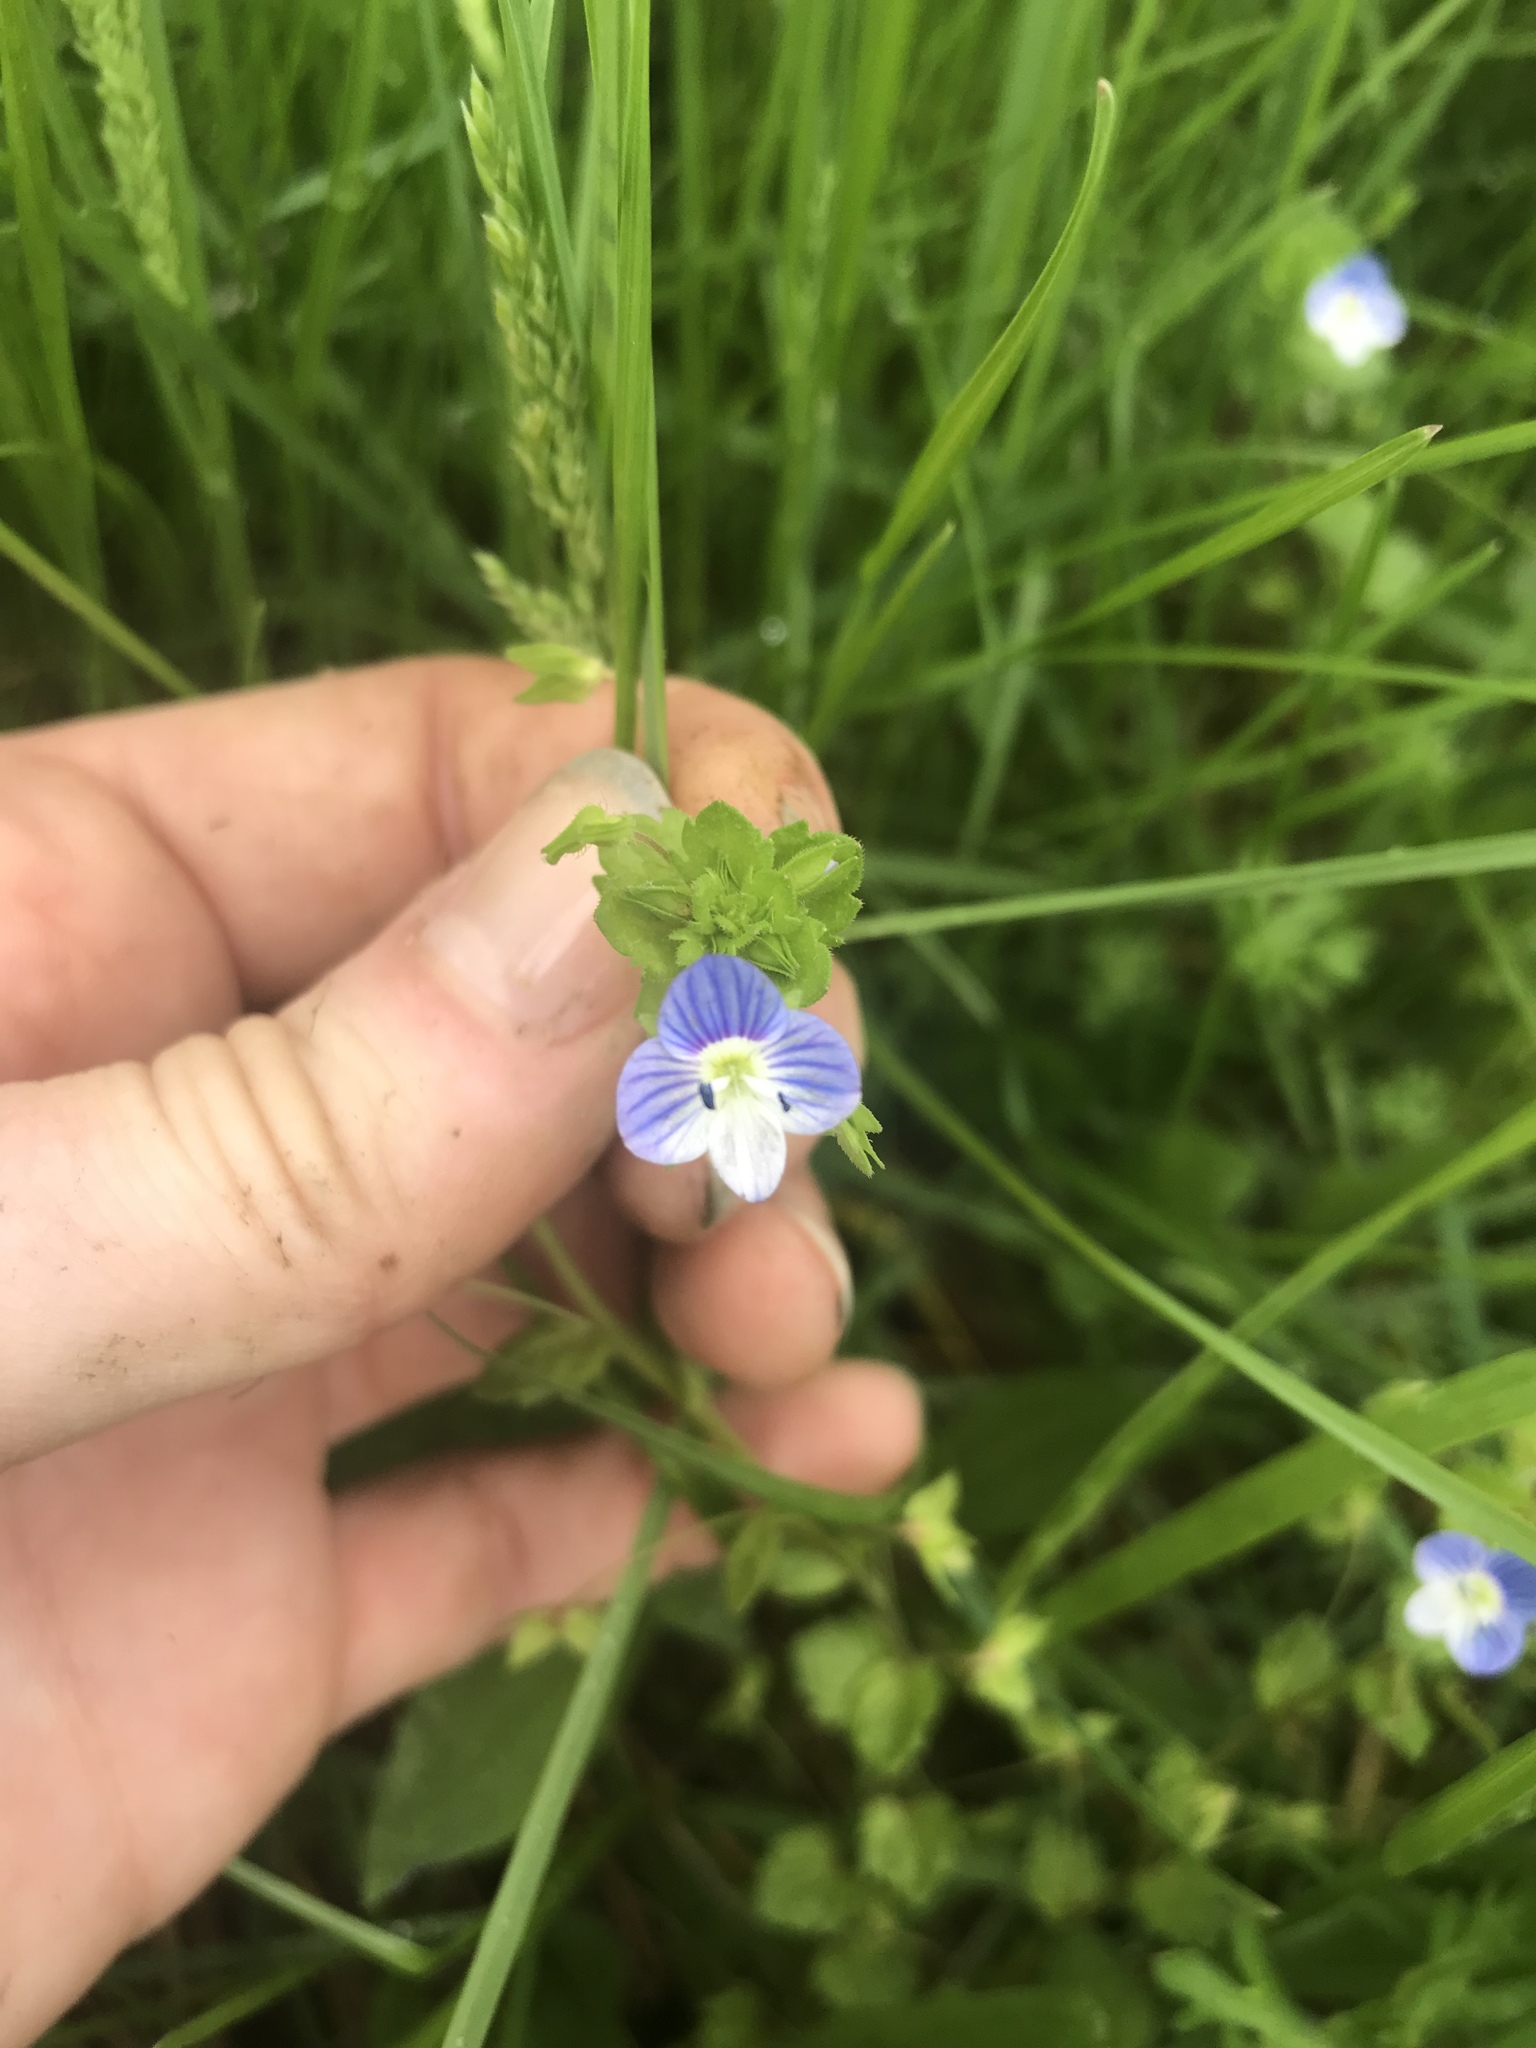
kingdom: Plantae
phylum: Tracheophyta
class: Magnoliopsida
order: Lamiales
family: Plantaginaceae
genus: Veronica
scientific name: Veronica persica
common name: Common field-speedwell
